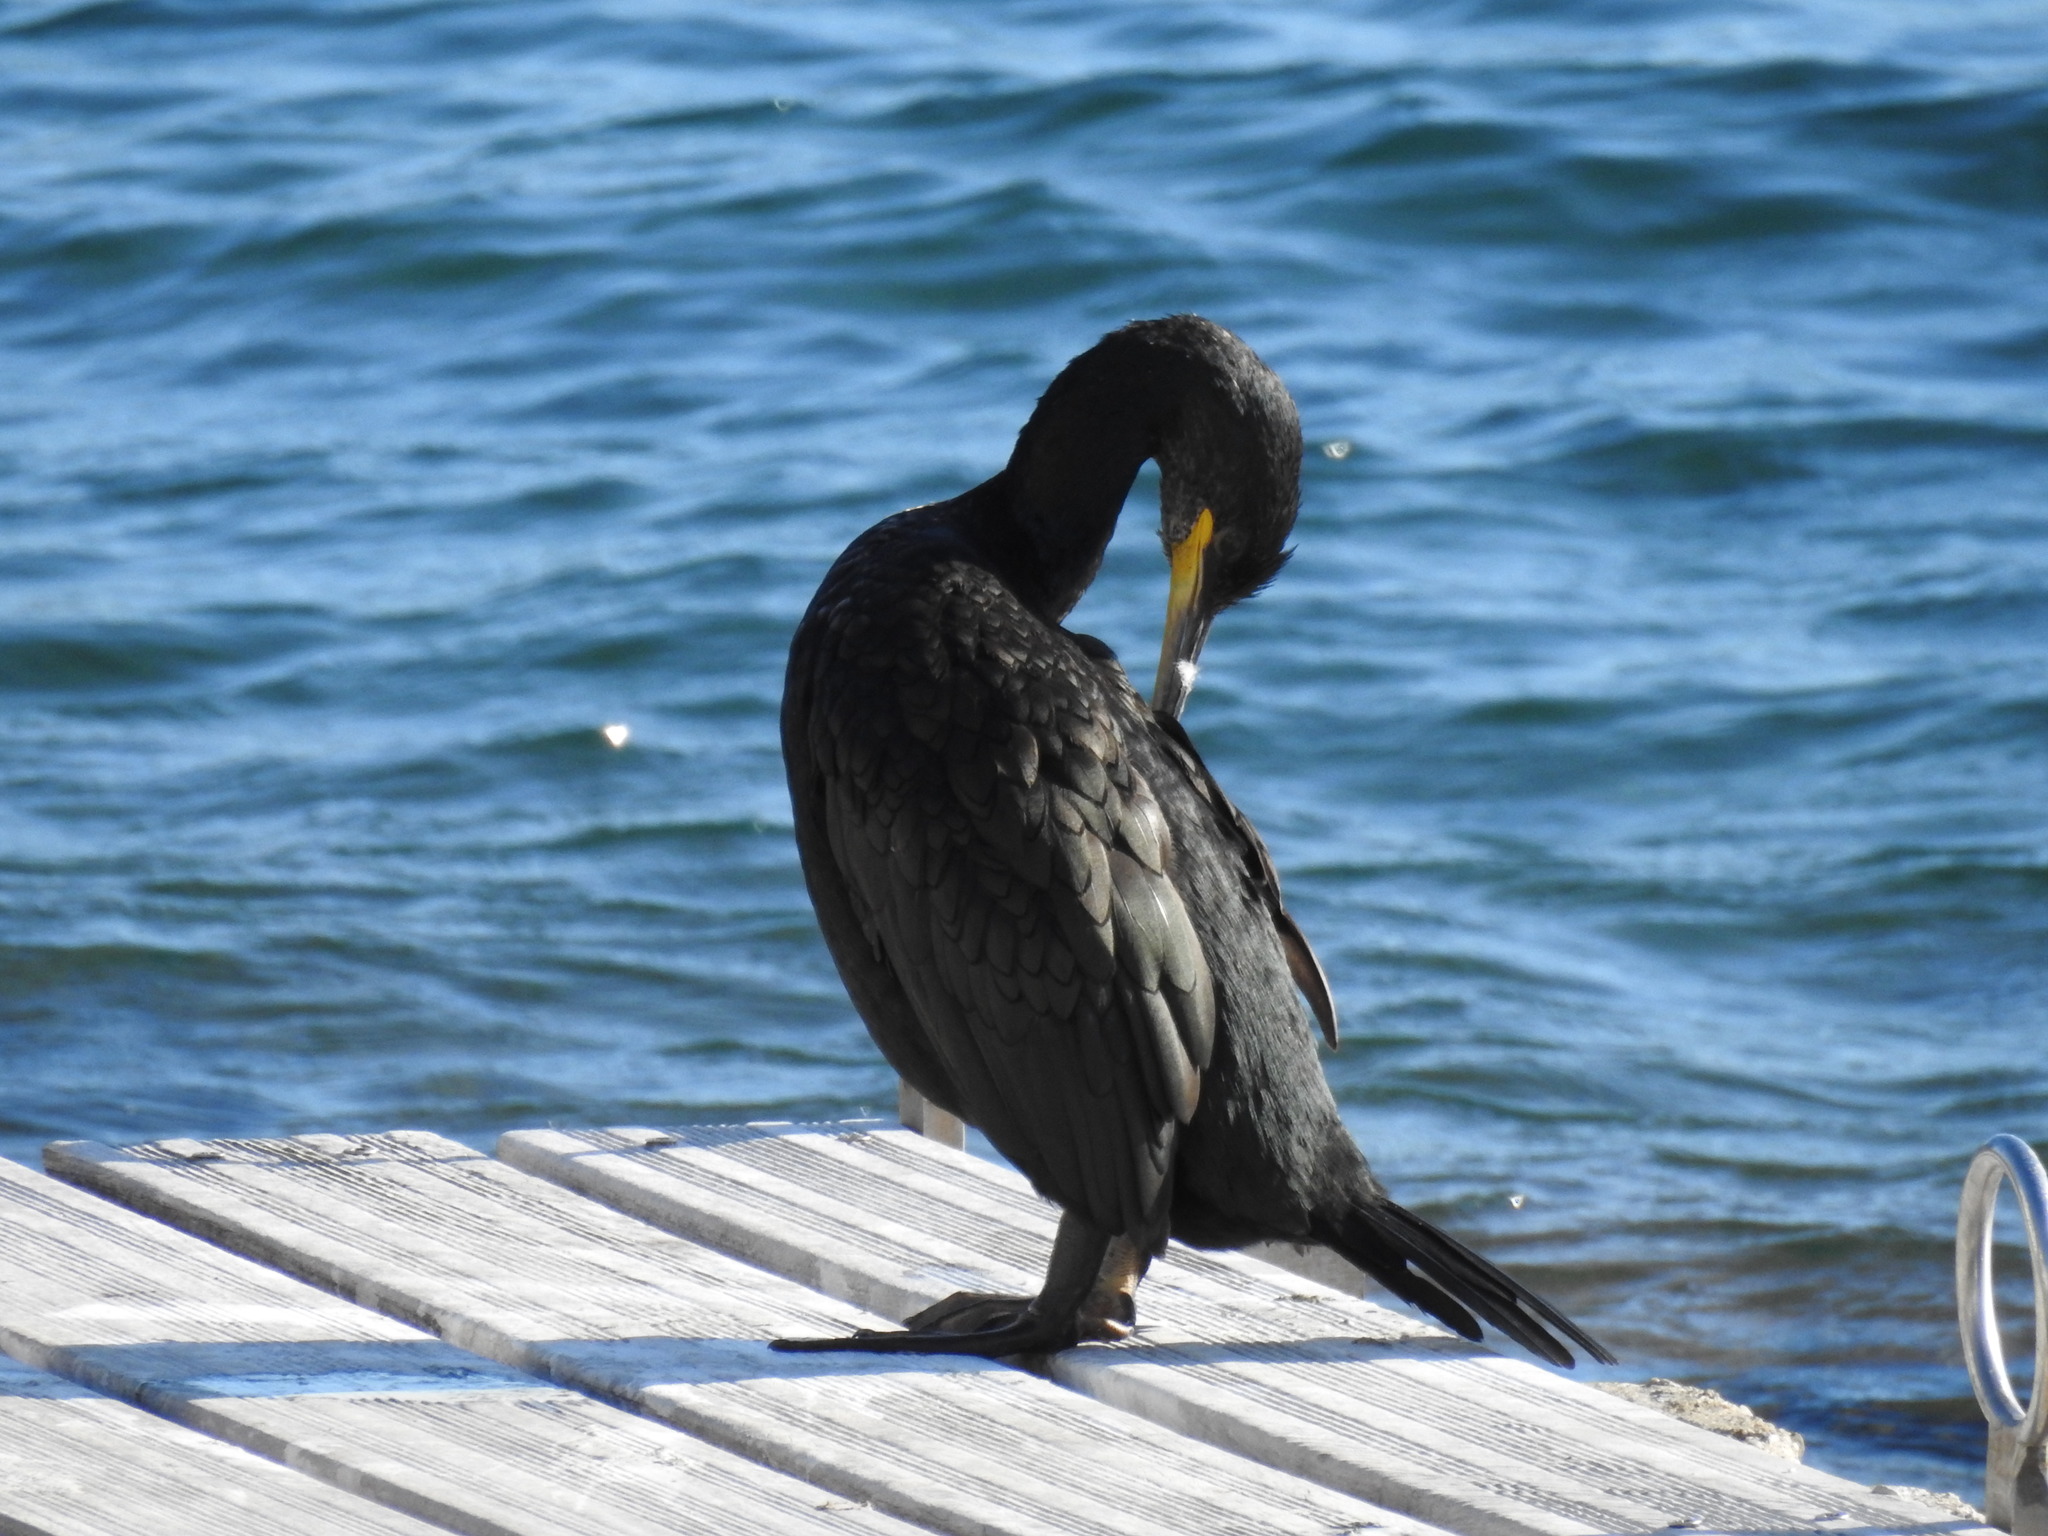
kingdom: Animalia
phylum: Chordata
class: Aves
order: Suliformes
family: Phalacrocoracidae
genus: Phalacrocorax
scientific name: Phalacrocorax aristotelis
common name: European shag
